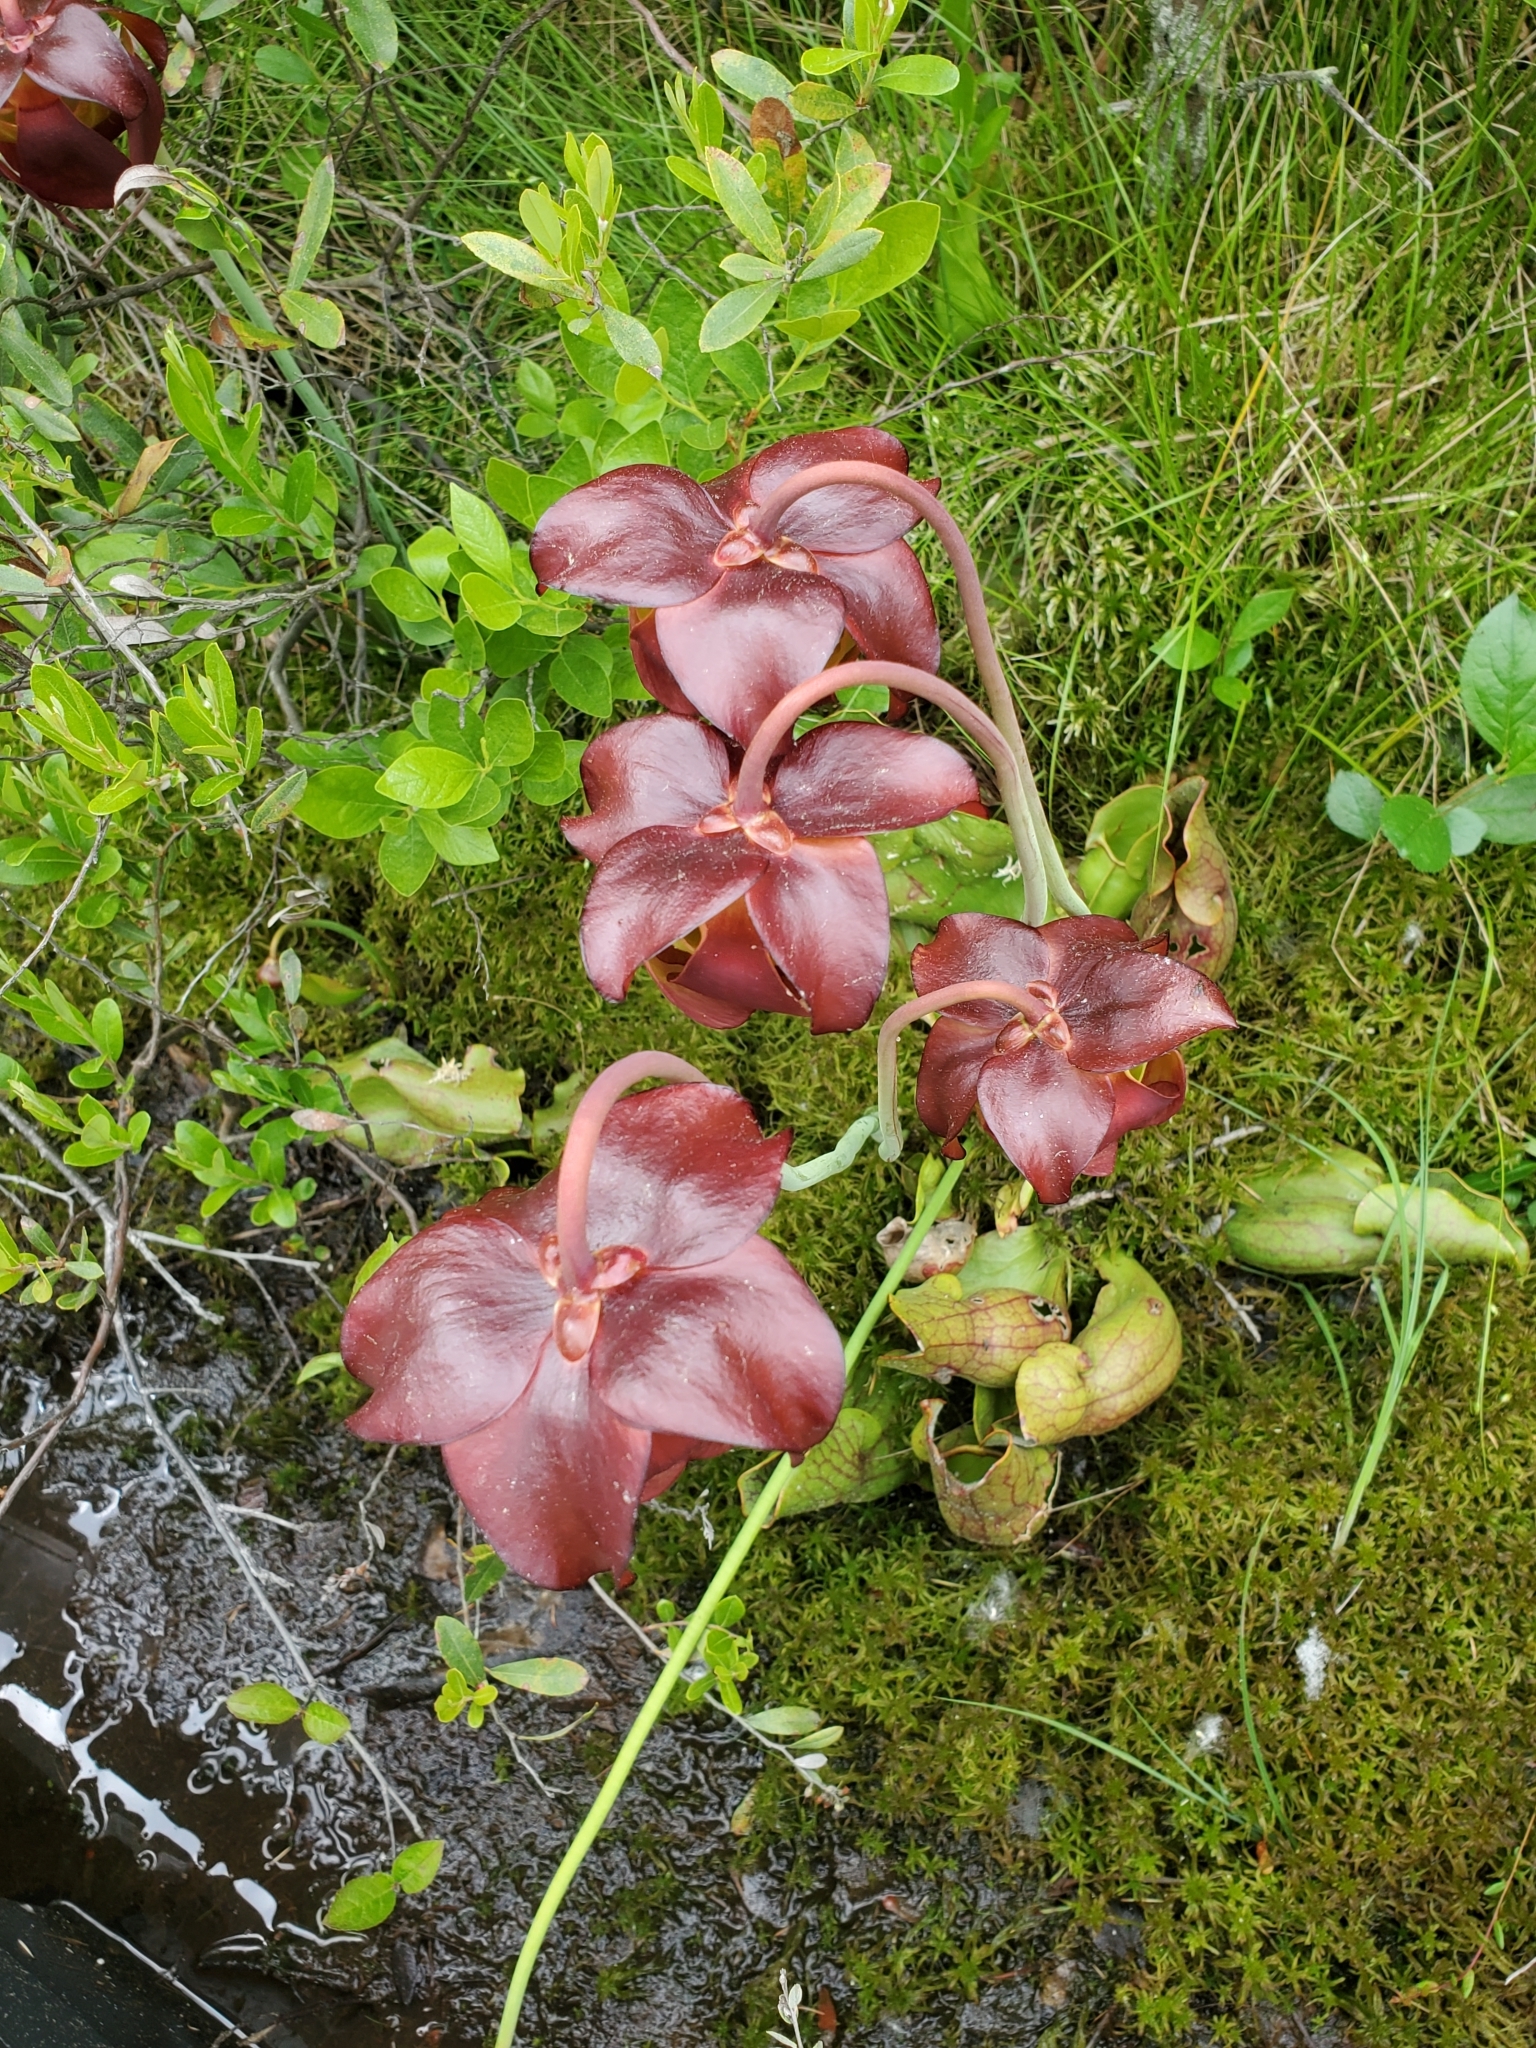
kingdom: Plantae
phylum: Tracheophyta
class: Magnoliopsida
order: Ericales
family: Sarraceniaceae
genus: Sarracenia
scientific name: Sarracenia purpurea
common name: Pitcherplant
